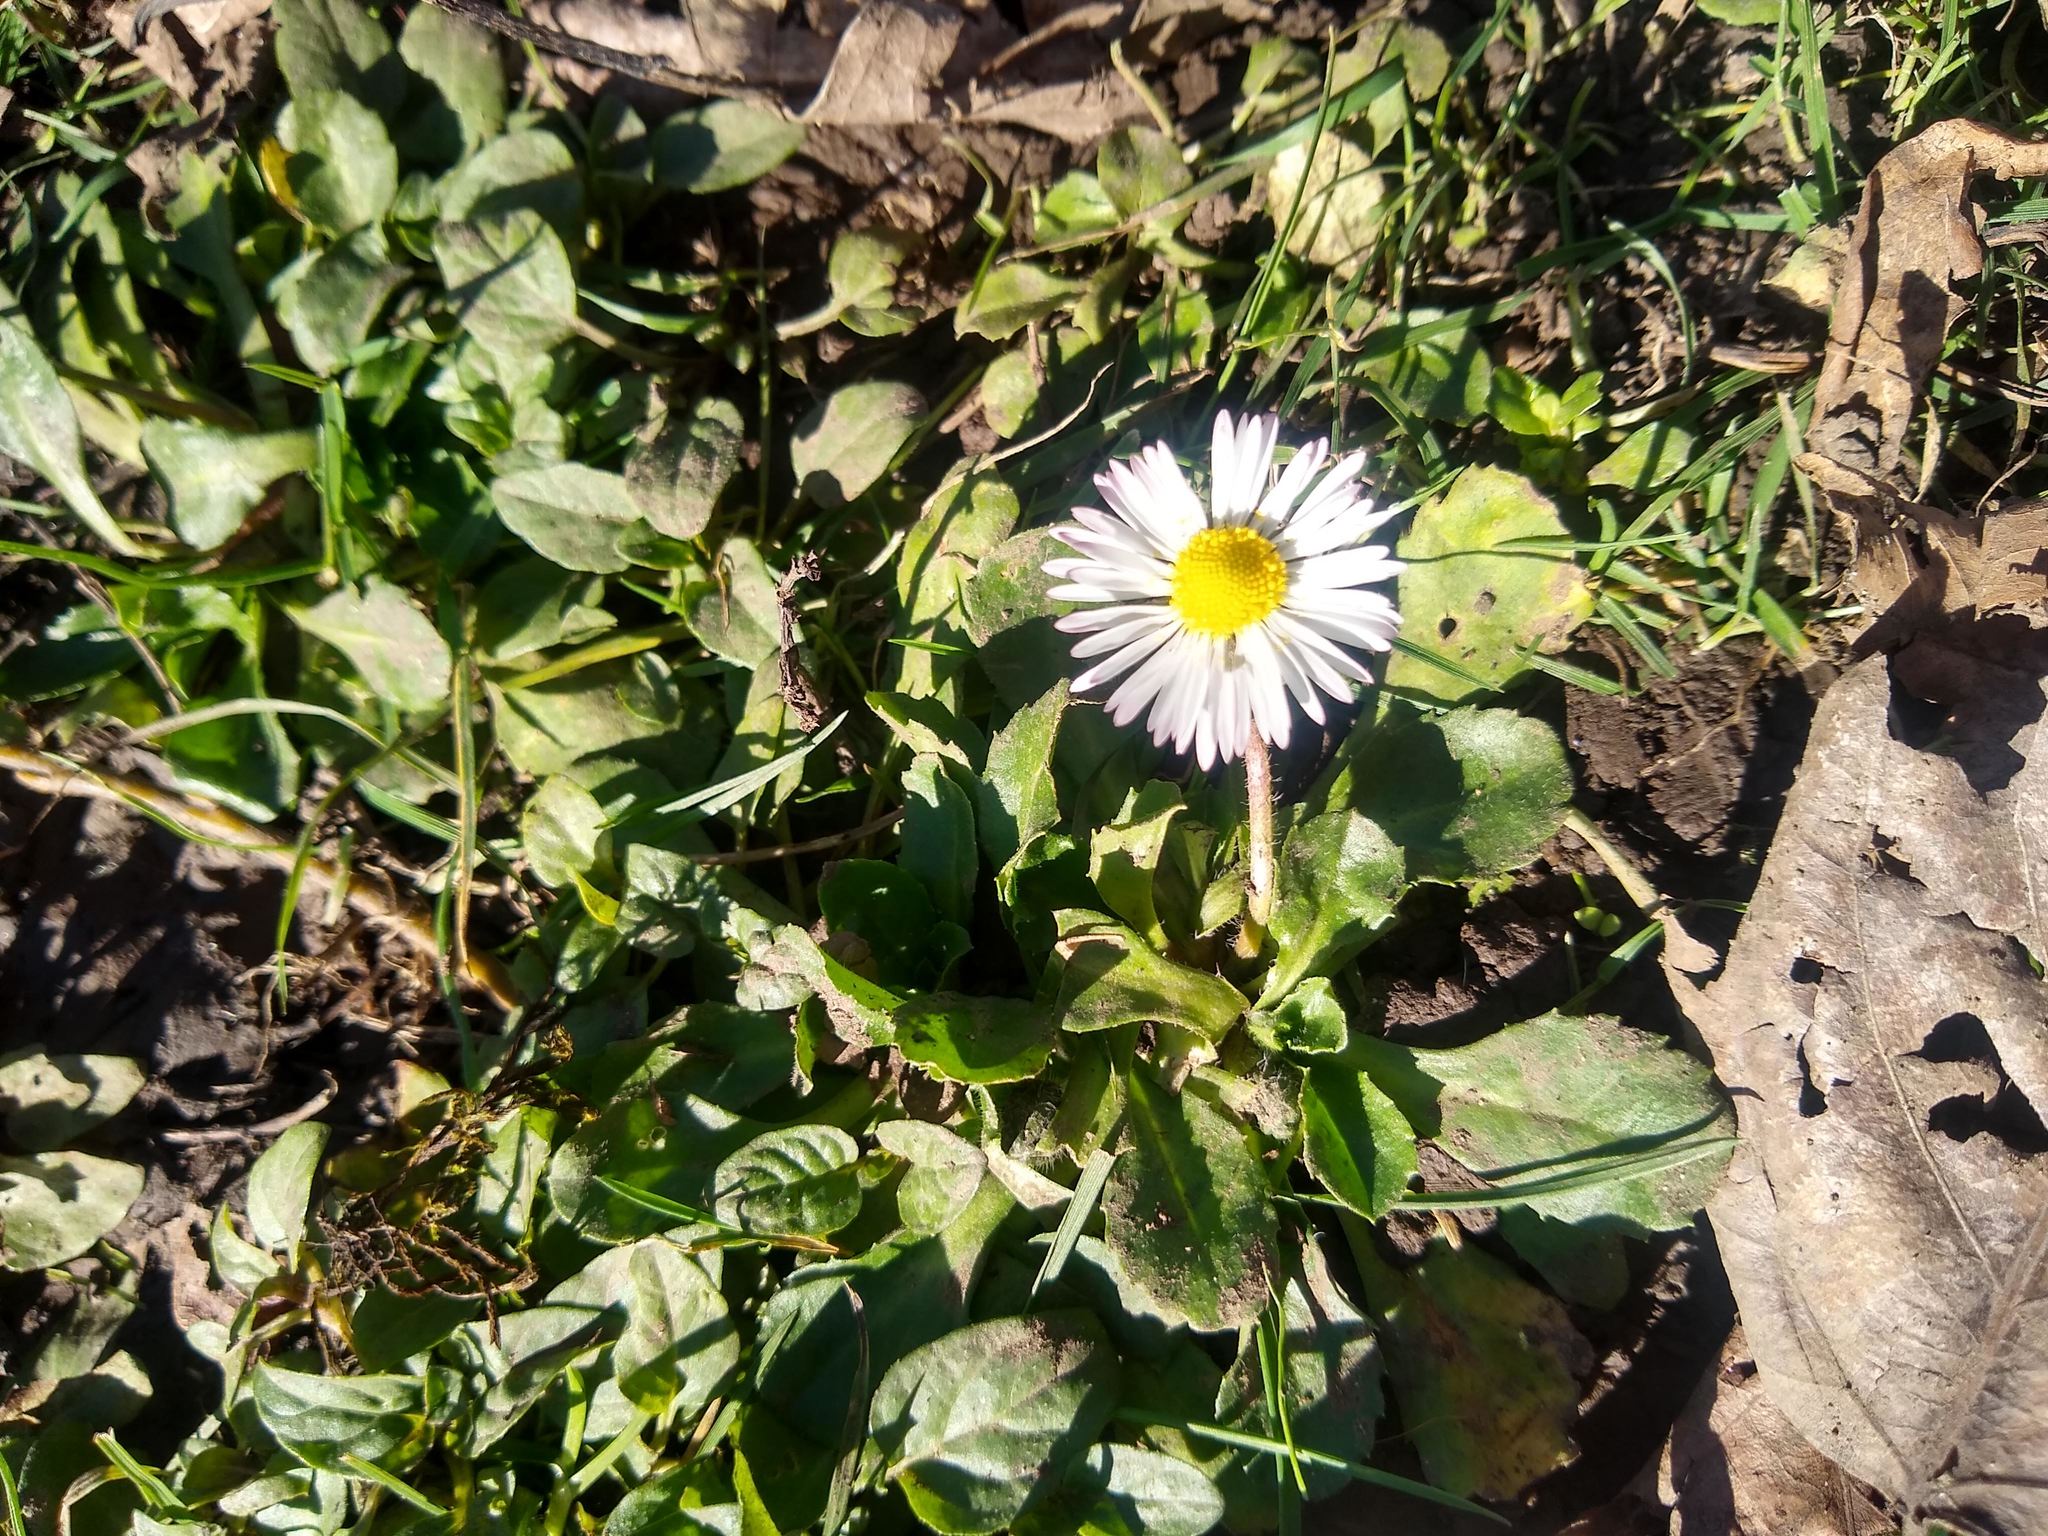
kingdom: Plantae
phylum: Tracheophyta
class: Magnoliopsida
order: Asterales
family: Asteraceae
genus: Bellis
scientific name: Bellis perennis
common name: Lawndaisy
